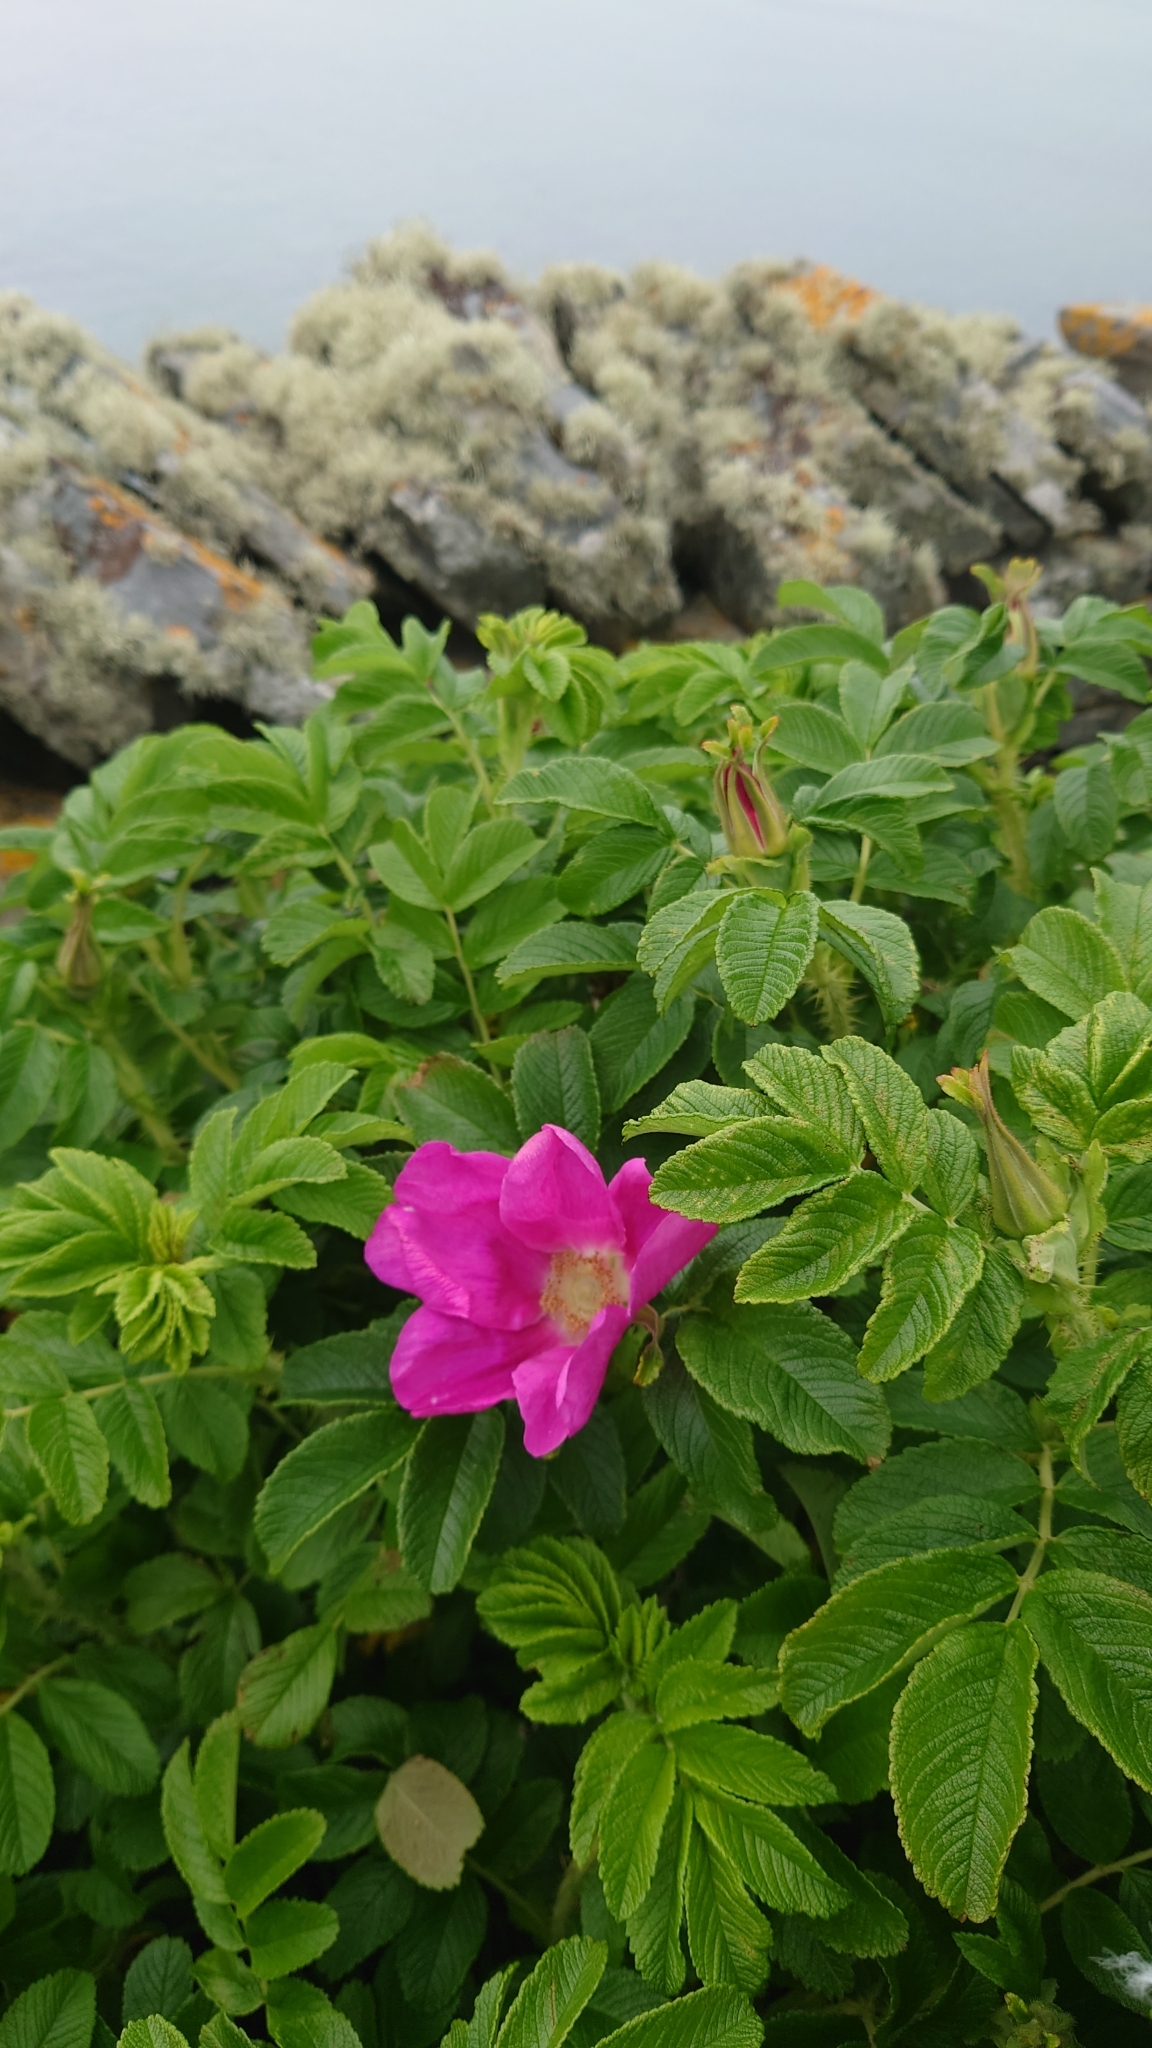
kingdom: Plantae
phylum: Tracheophyta
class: Magnoliopsida
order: Rosales
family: Rosaceae
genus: Rosa
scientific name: Rosa rugosa
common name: Japanese rose
